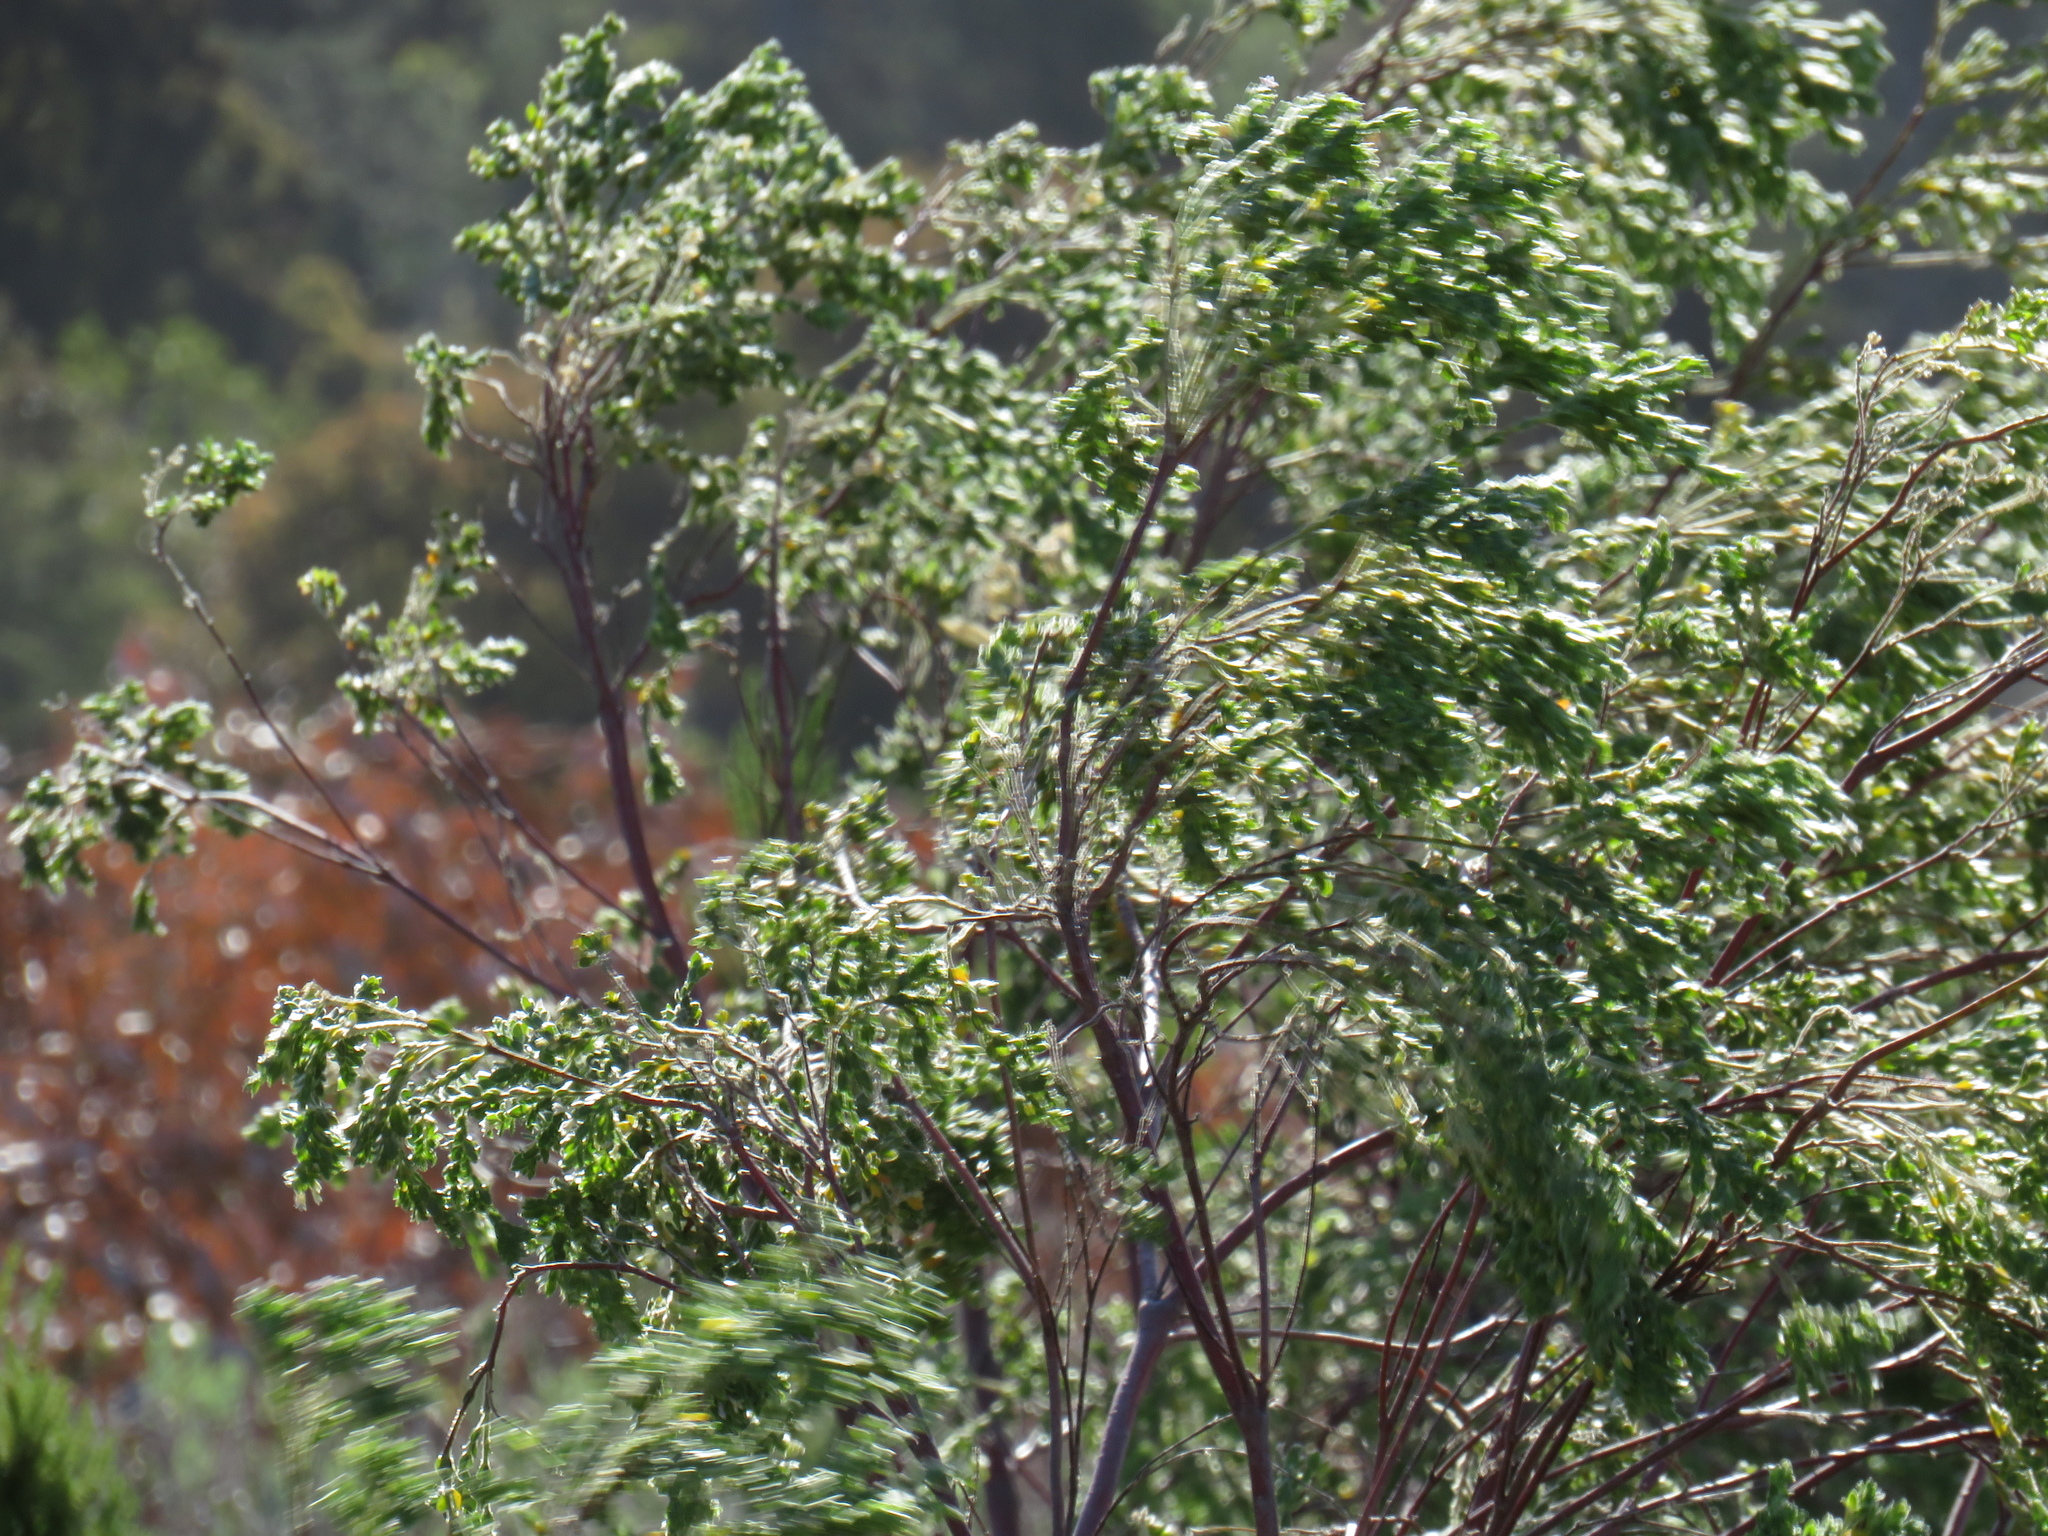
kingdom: Plantae
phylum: Tracheophyta
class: Magnoliopsida
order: Malvales
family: Thymelaeaceae
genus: Gnidia
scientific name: Gnidia sericea
